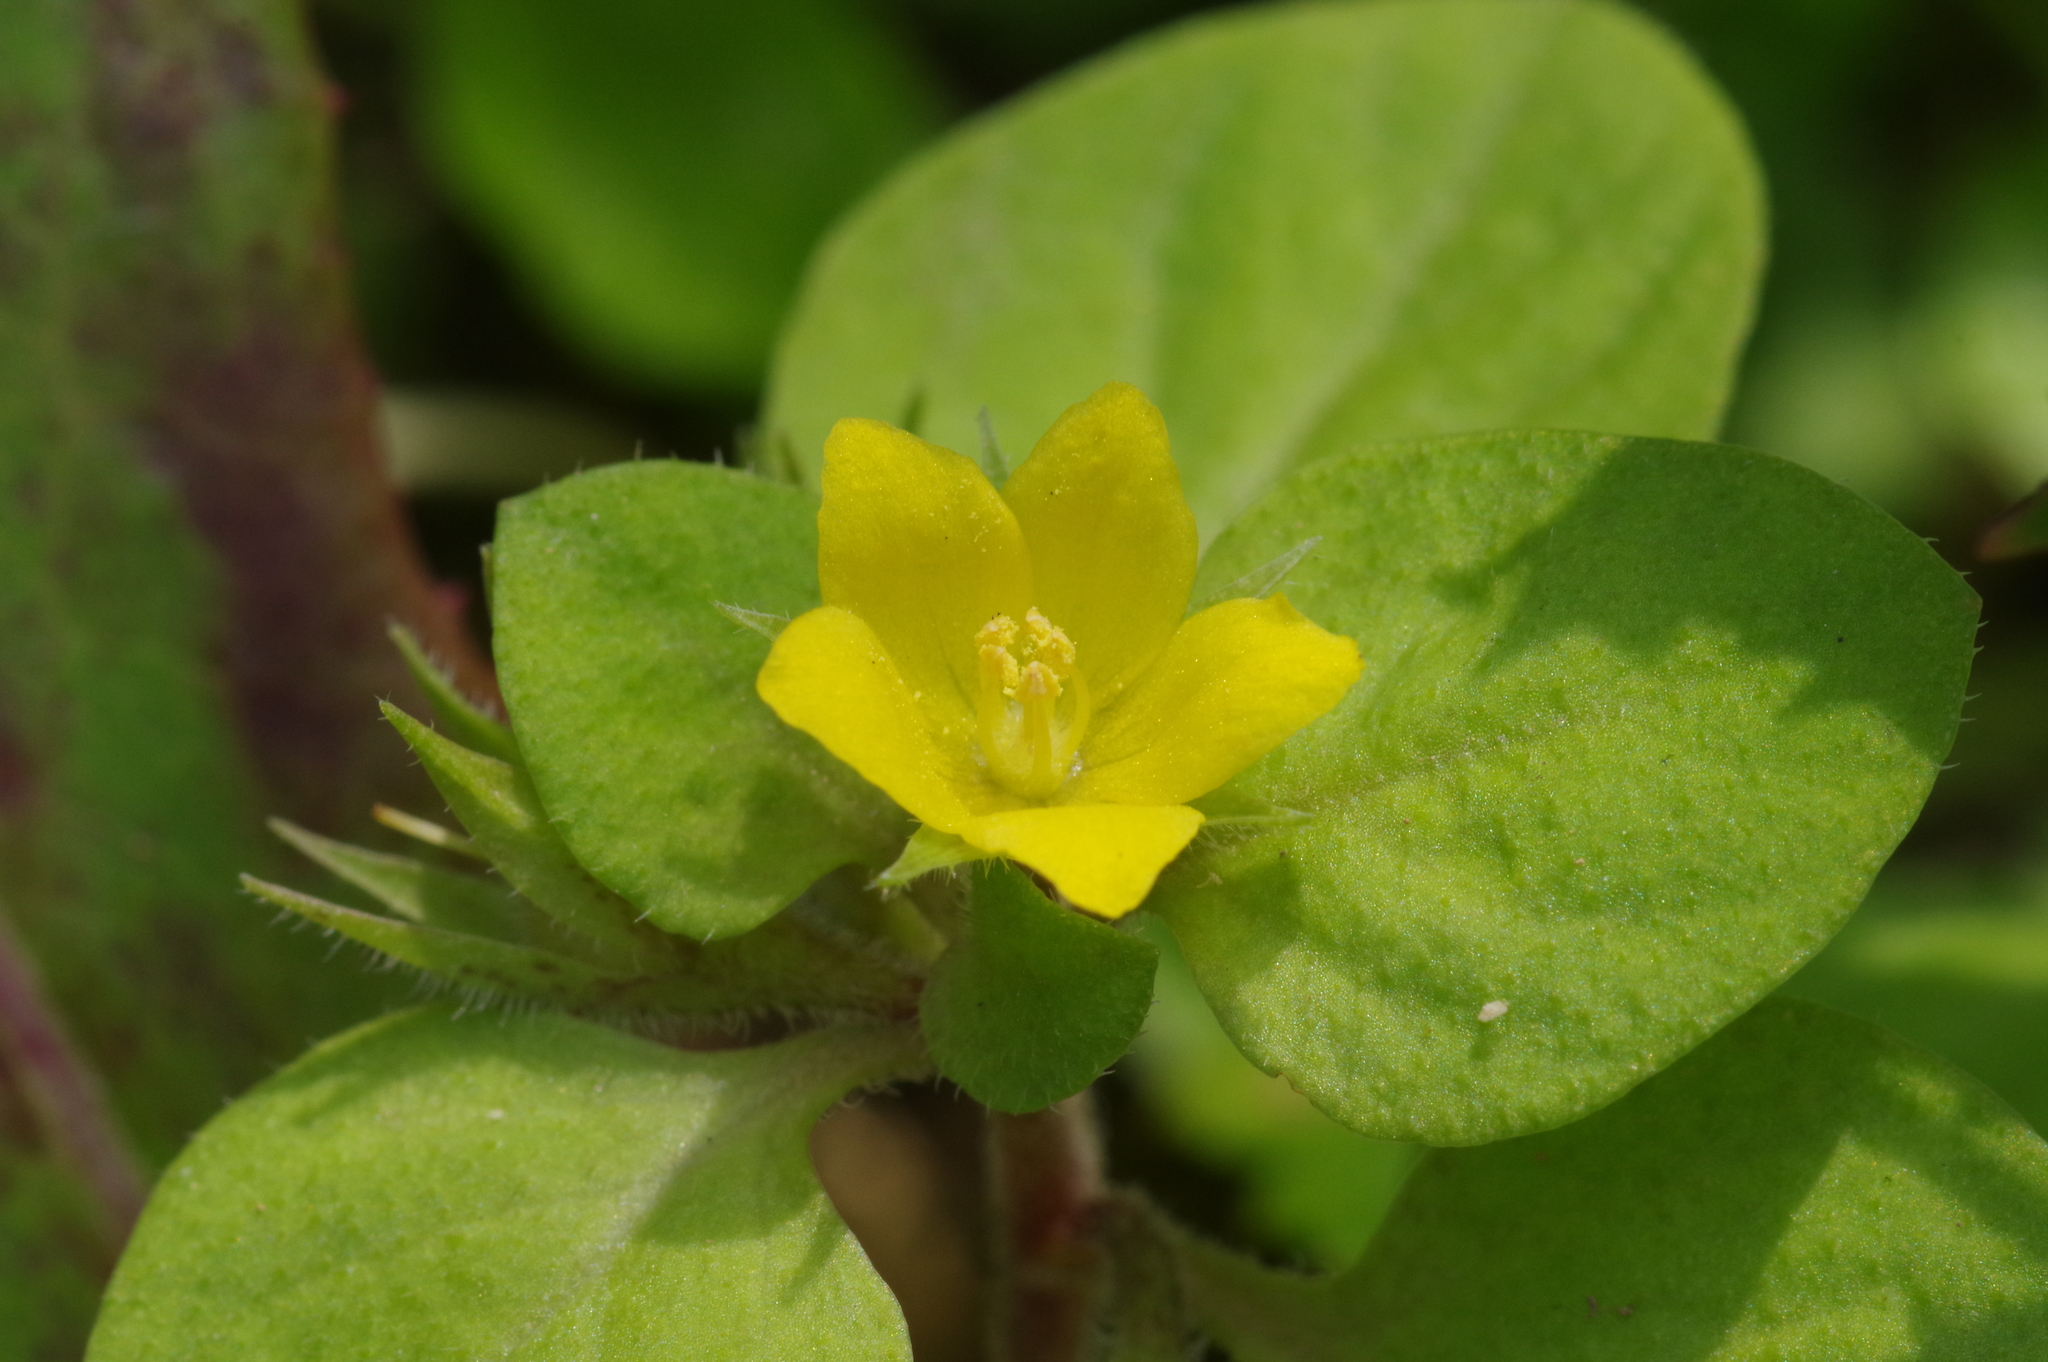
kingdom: Plantae
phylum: Tracheophyta
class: Magnoliopsida
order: Ericales
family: Primulaceae
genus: Lysimachia
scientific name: Lysimachia japonica
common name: Japanese yellow loosestrife
